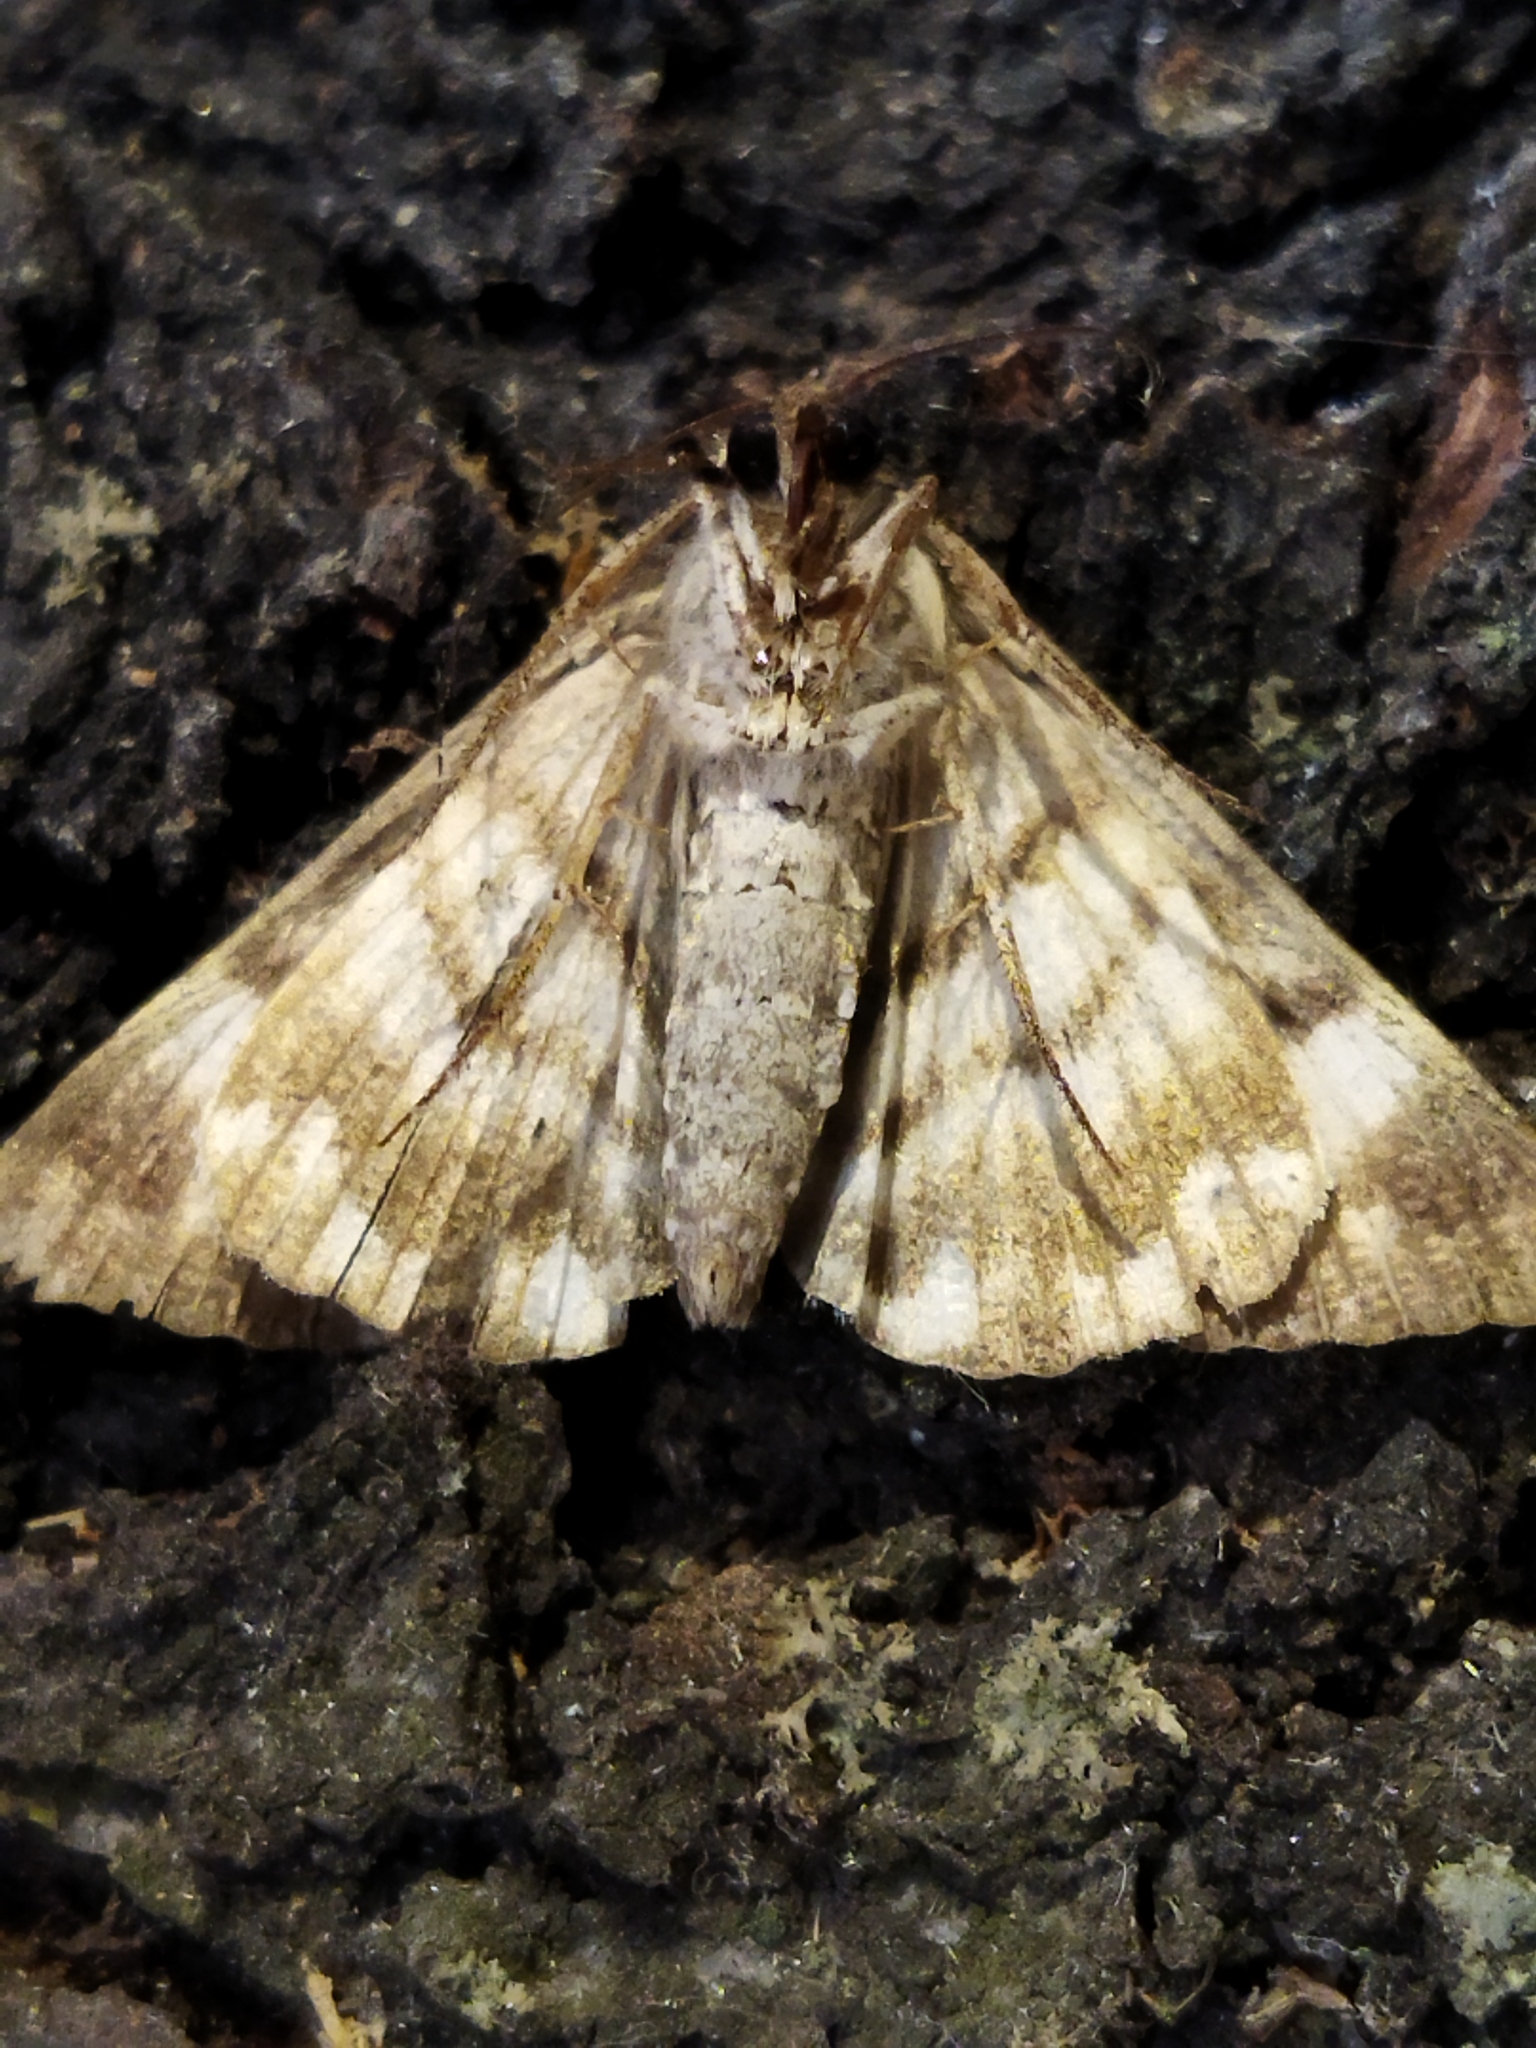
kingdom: Animalia
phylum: Arthropoda
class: Insecta
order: Lepidoptera
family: Erebidae
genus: Grammodes
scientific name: Grammodes stolida
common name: Geometrician
